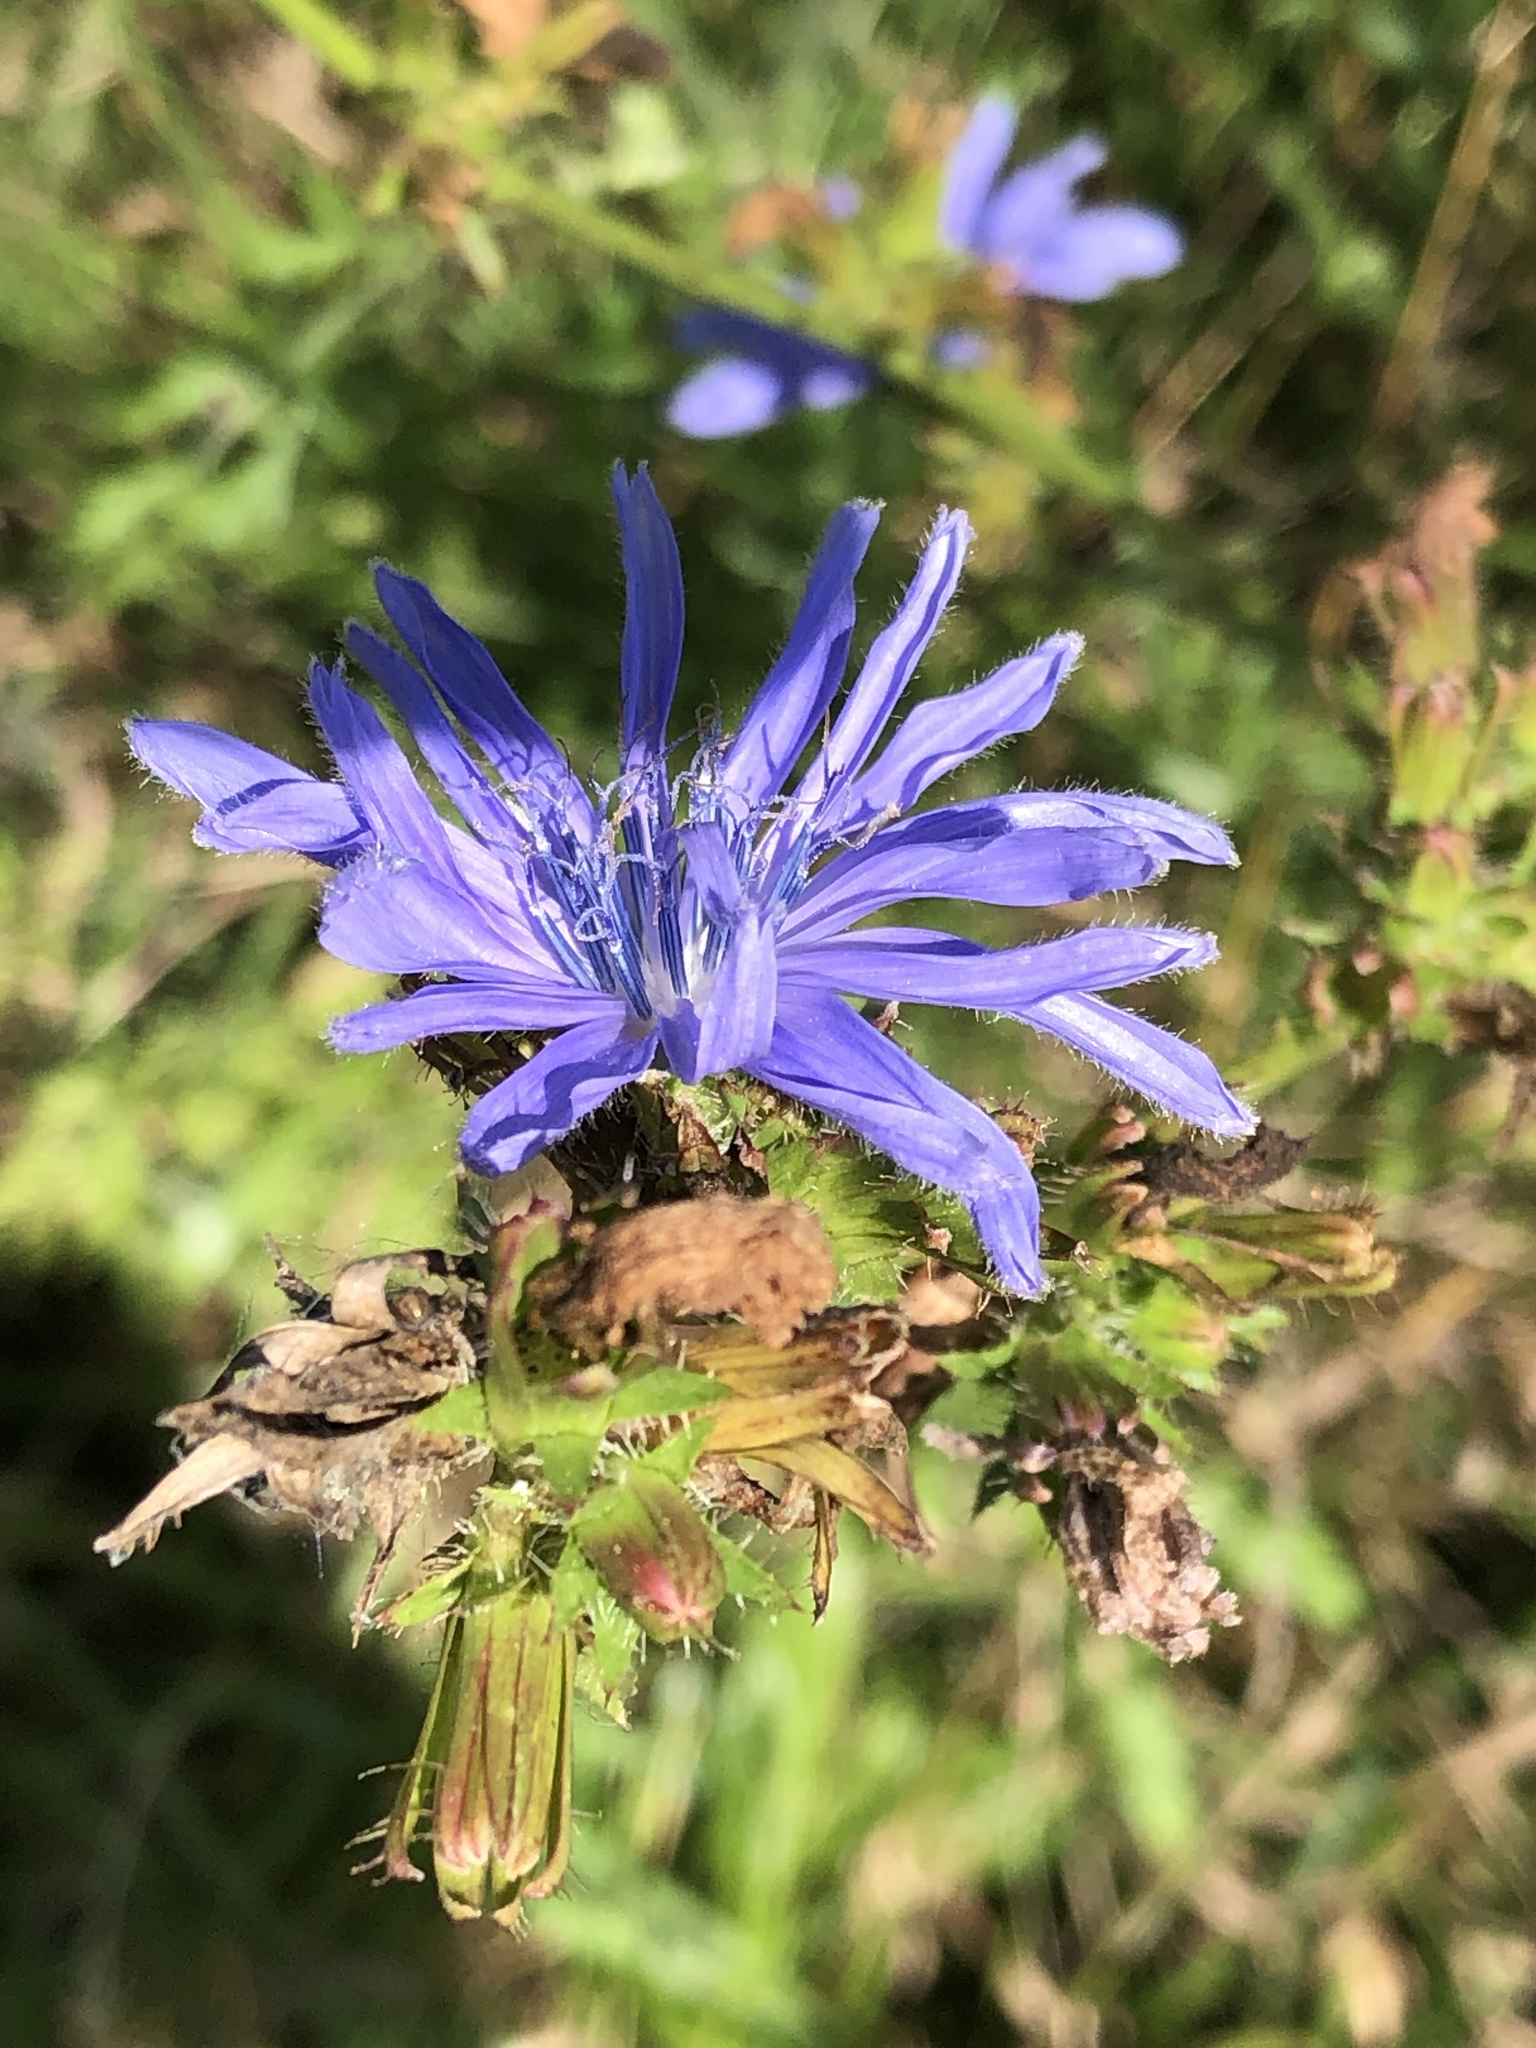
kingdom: Plantae
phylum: Tracheophyta
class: Magnoliopsida
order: Asterales
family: Asteraceae
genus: Cichorium
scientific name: Cichorium intybus
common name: Chicory
